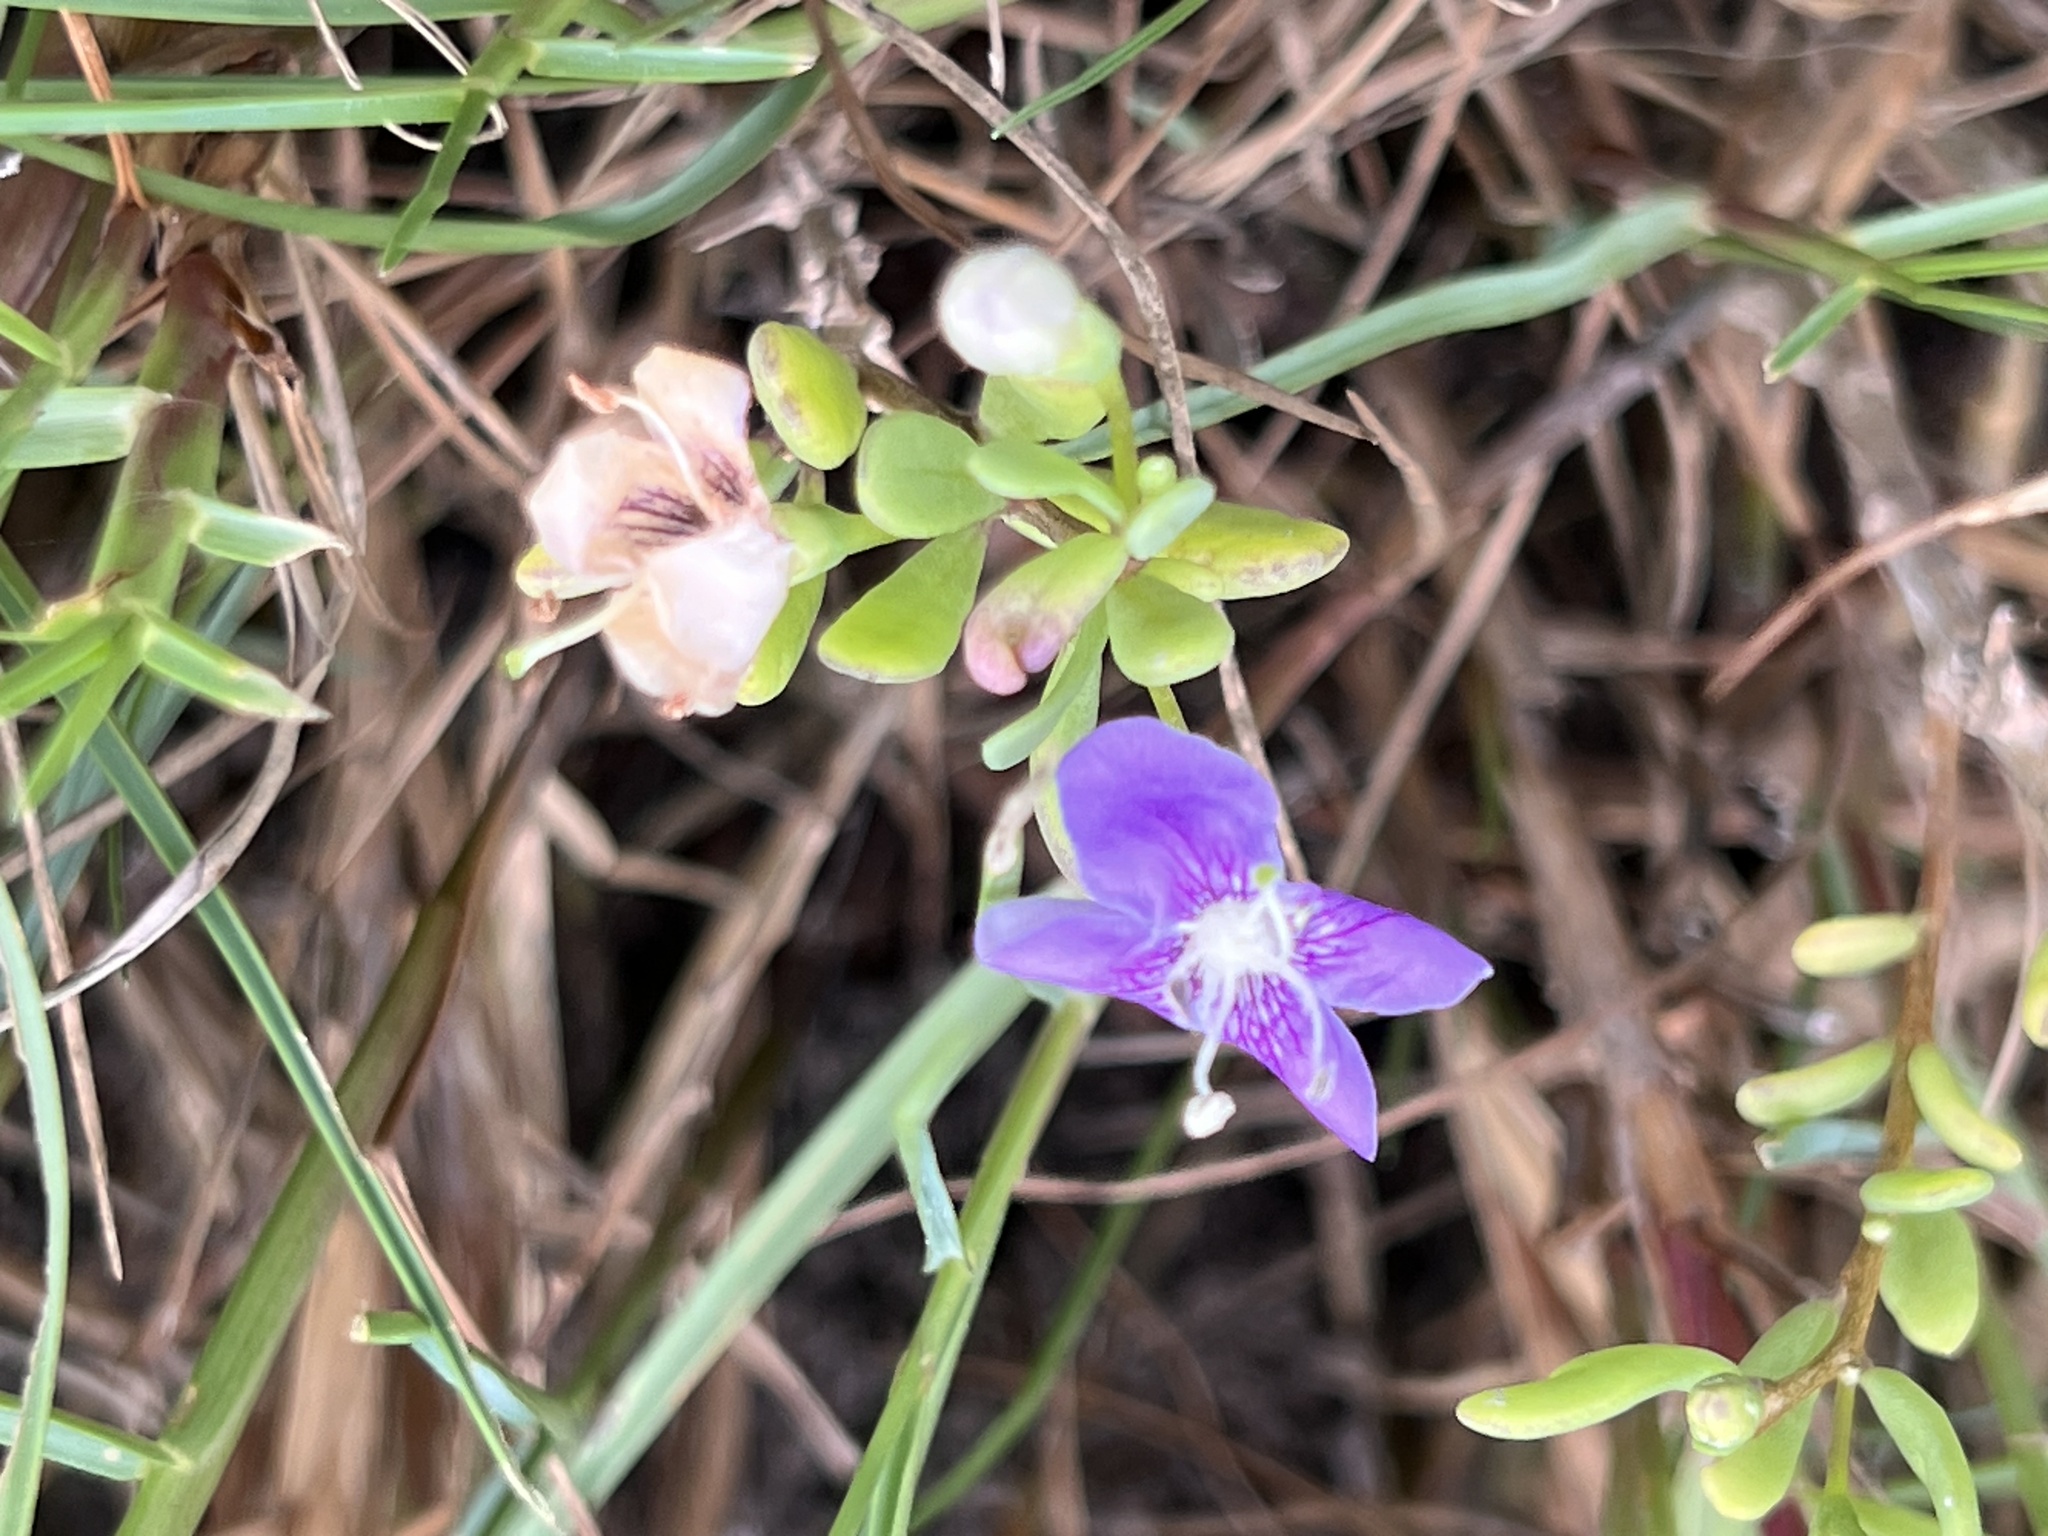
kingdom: Plantae
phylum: Tracheophyta
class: Magnoliopsida
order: Solanales
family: Solanaceae
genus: Lycium
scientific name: Lycium carolinianum
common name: Christmasberry
